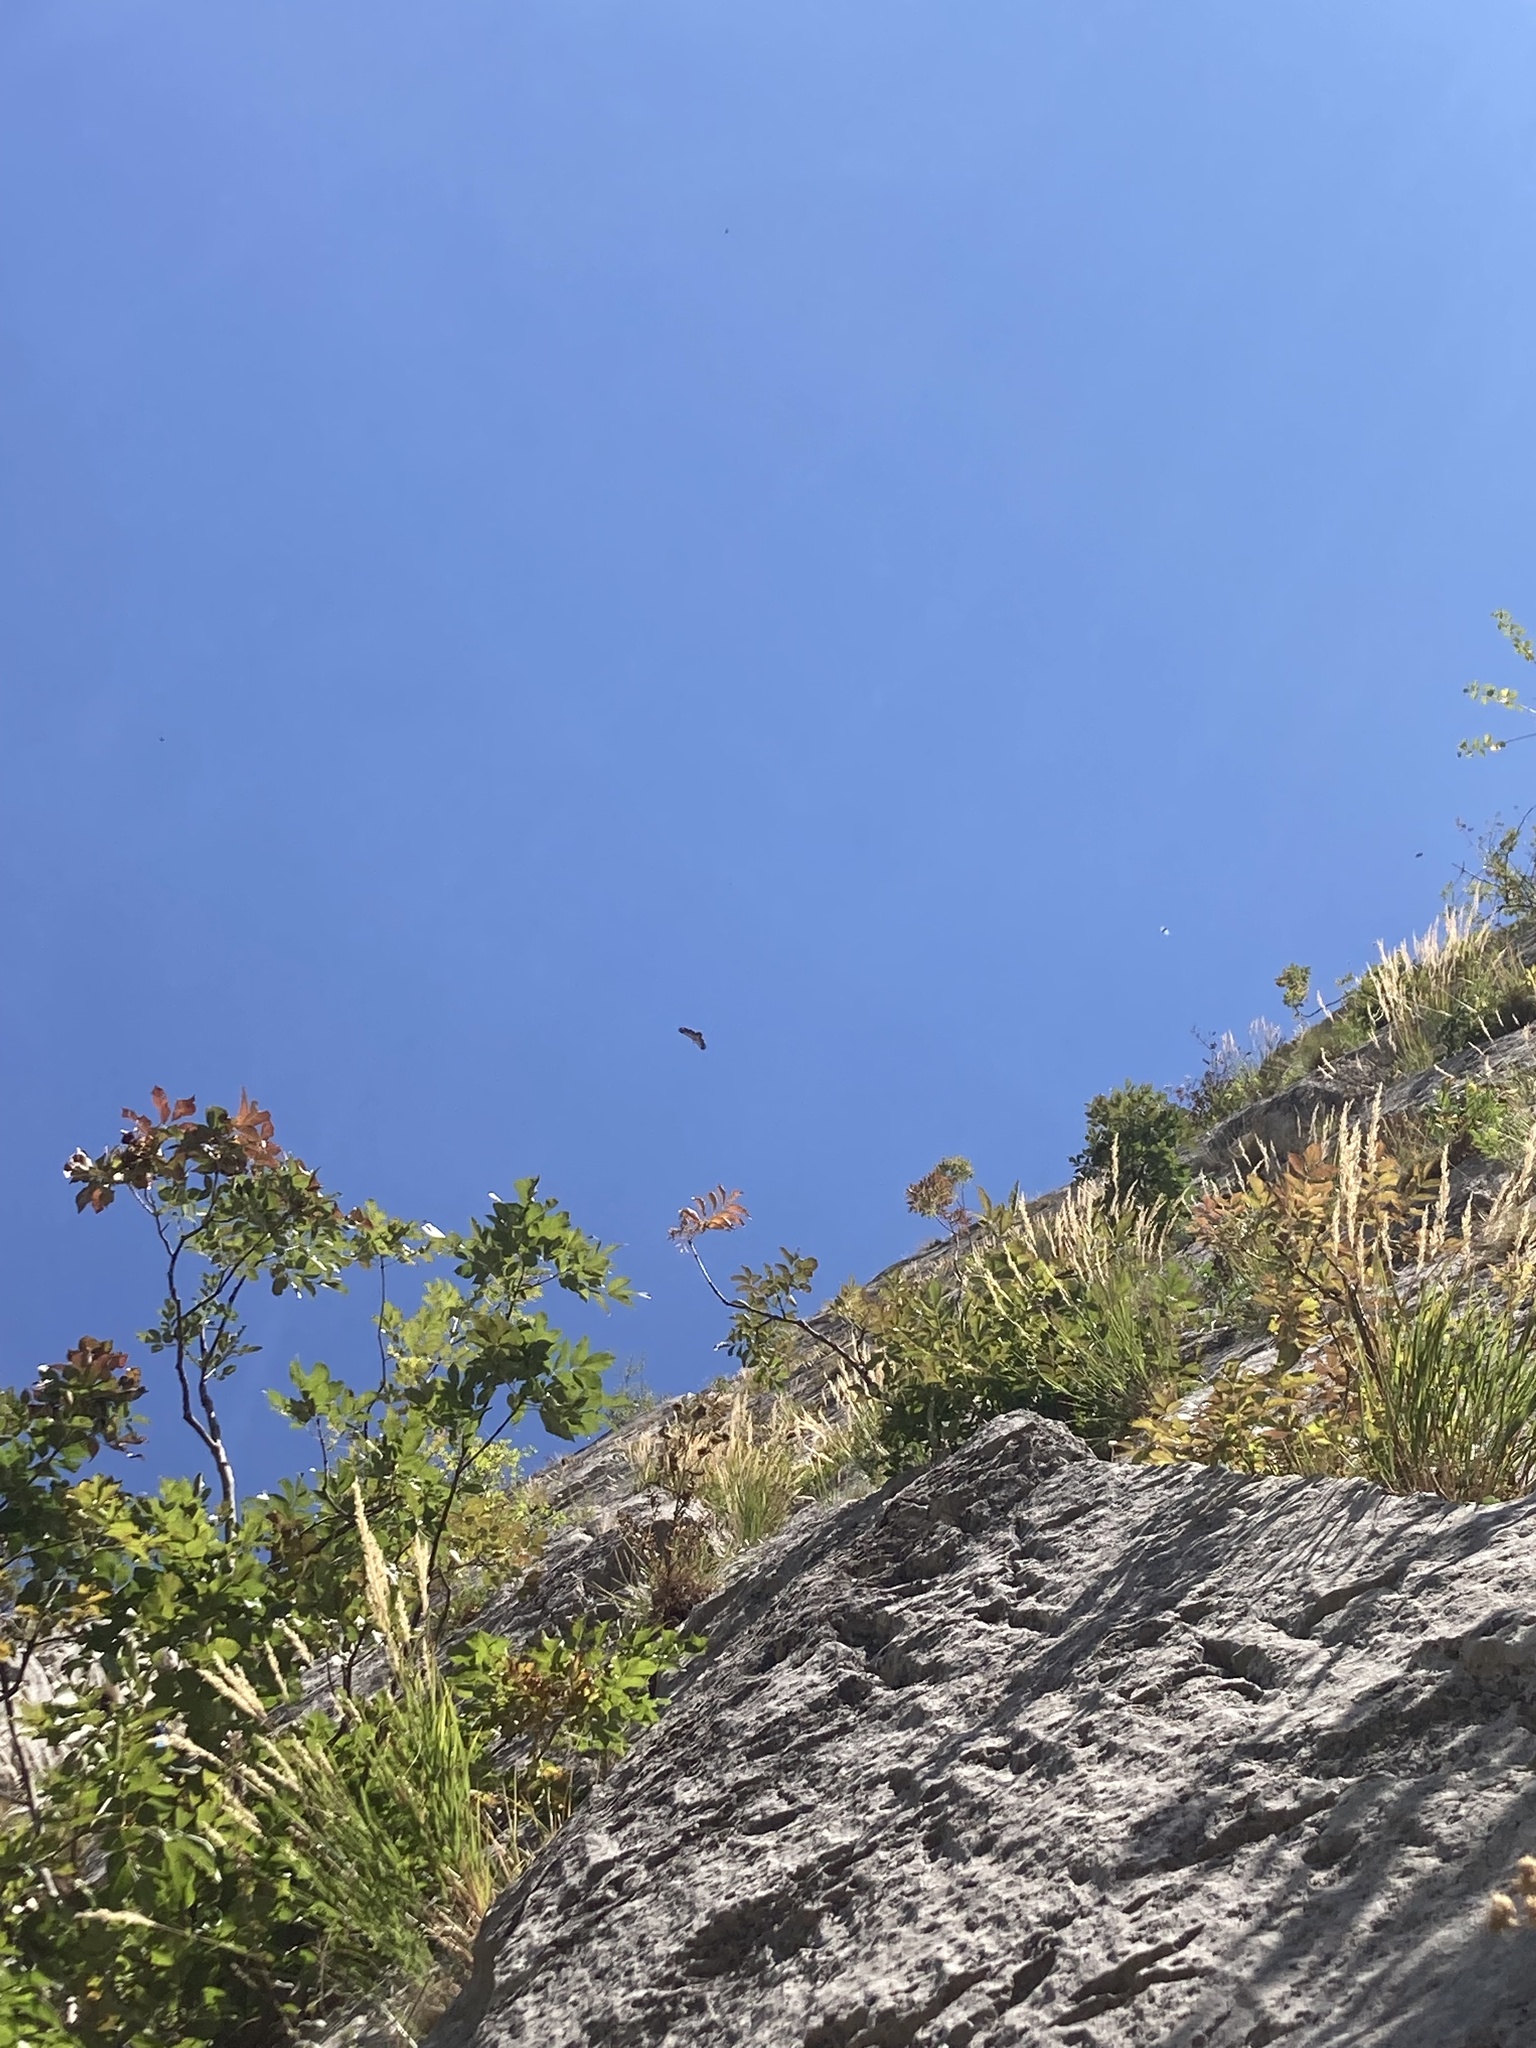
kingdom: Animalia
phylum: Chordata
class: Aves
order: Accipitriformes
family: Accipitridae
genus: Gyps
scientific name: Gyps fulvus
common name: Griffon vulture
